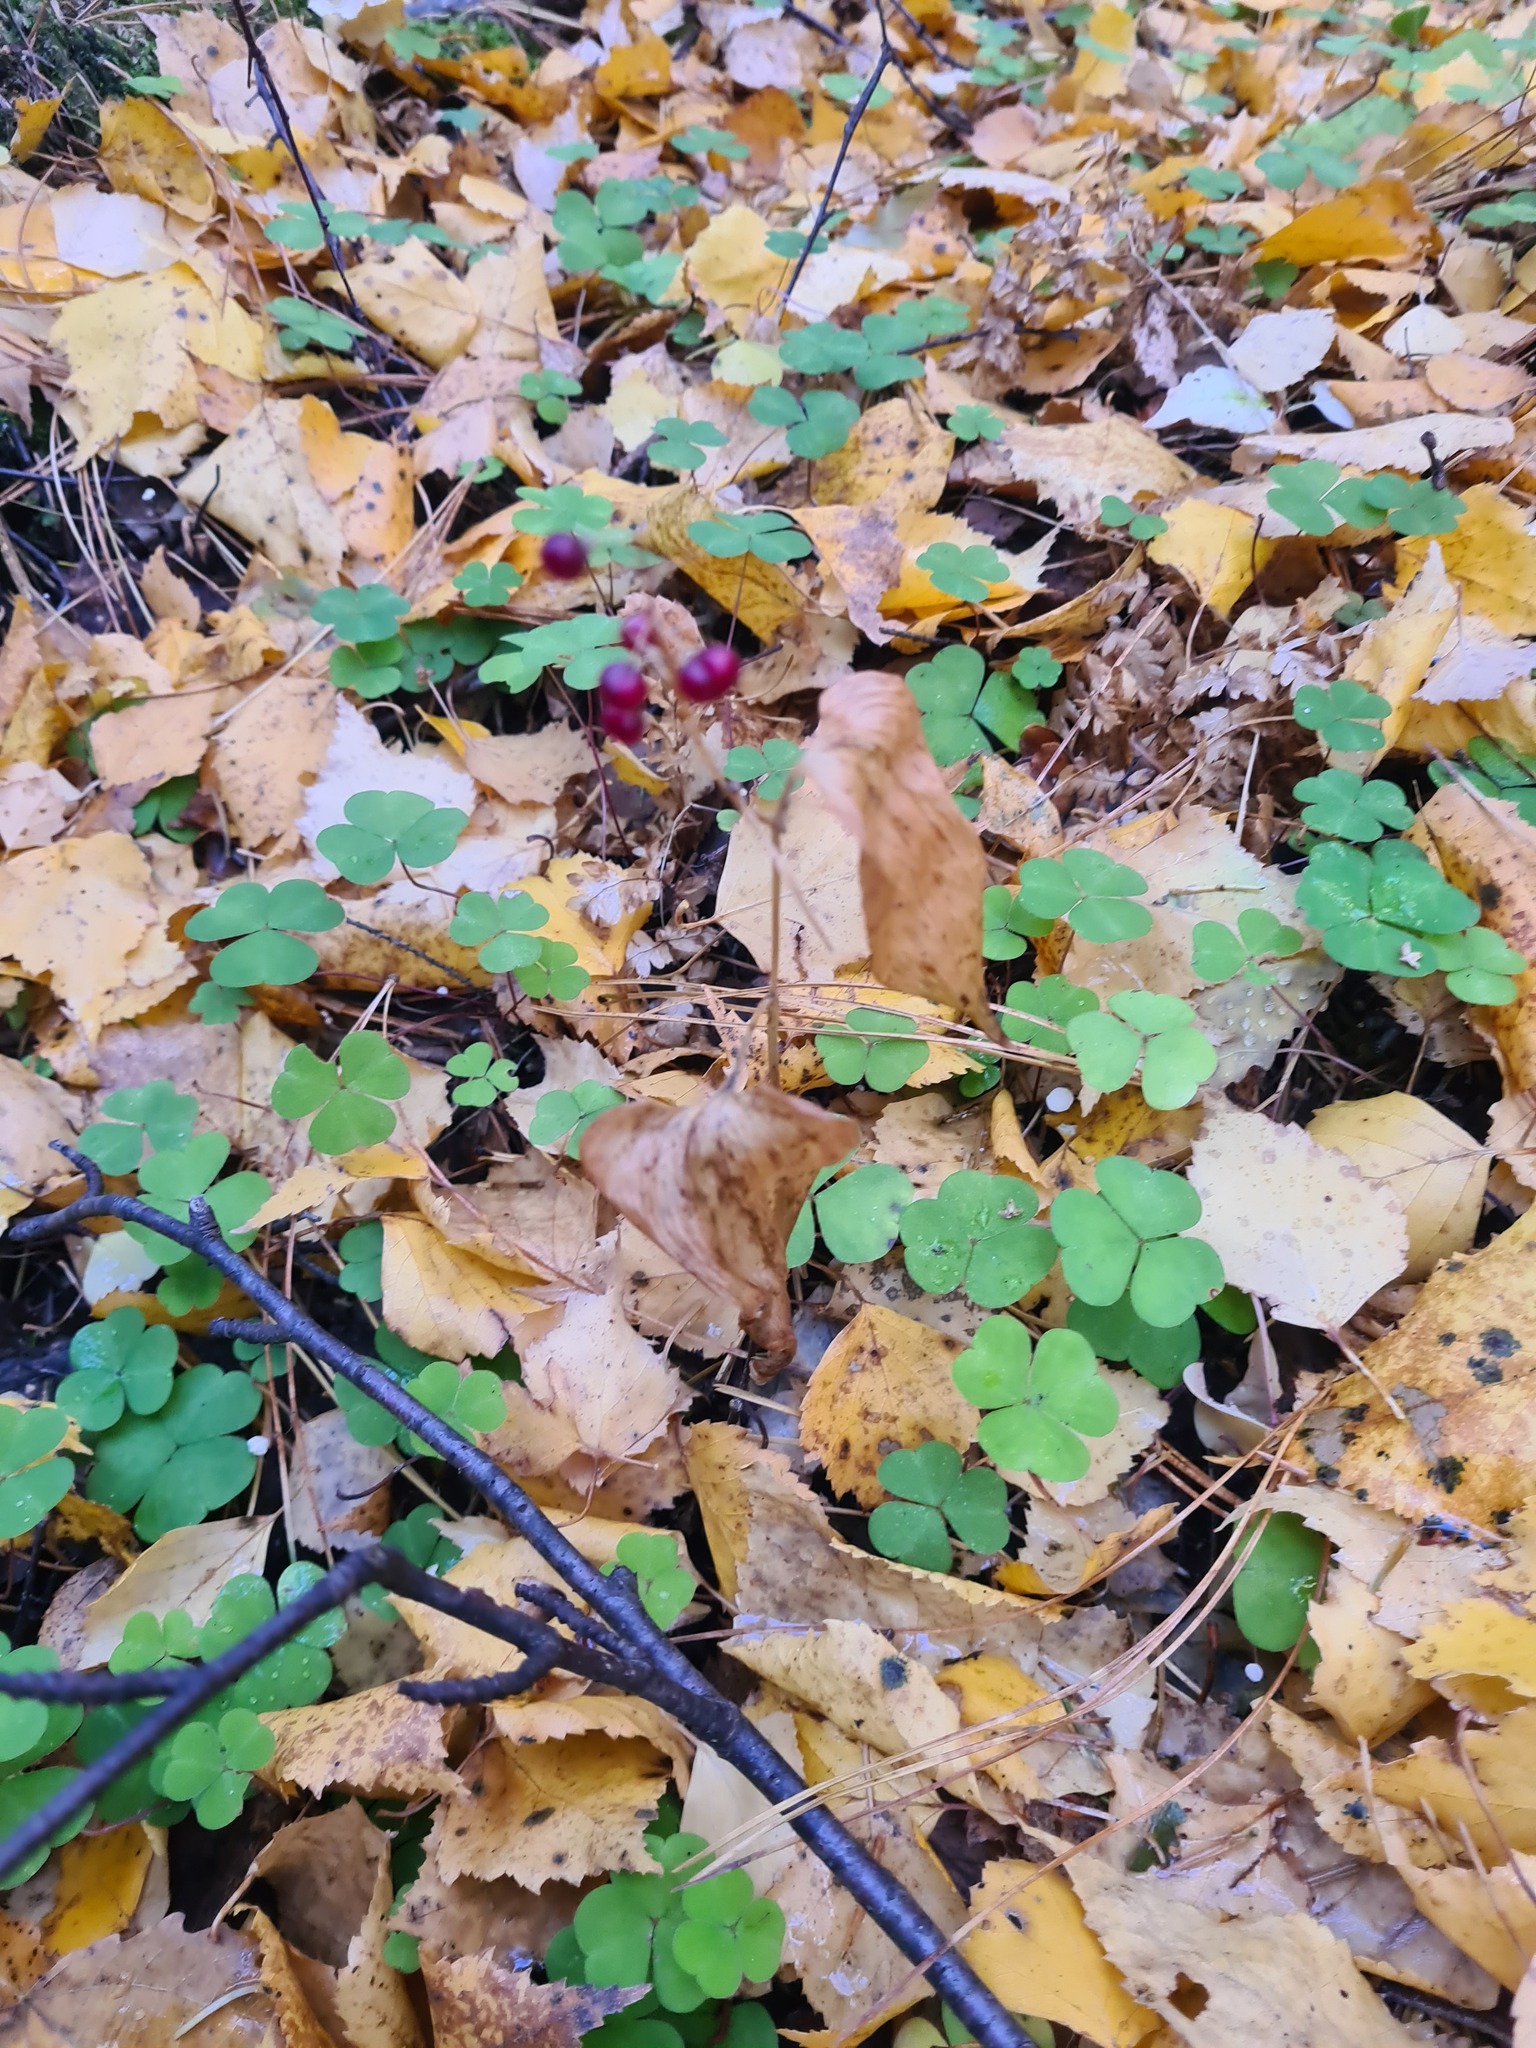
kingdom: Plantae
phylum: Tracheophyta
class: Liliopsida
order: Asparagales
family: Asparagaceae
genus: Maianthemum
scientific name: Maianthemum bifolium
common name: May lily
